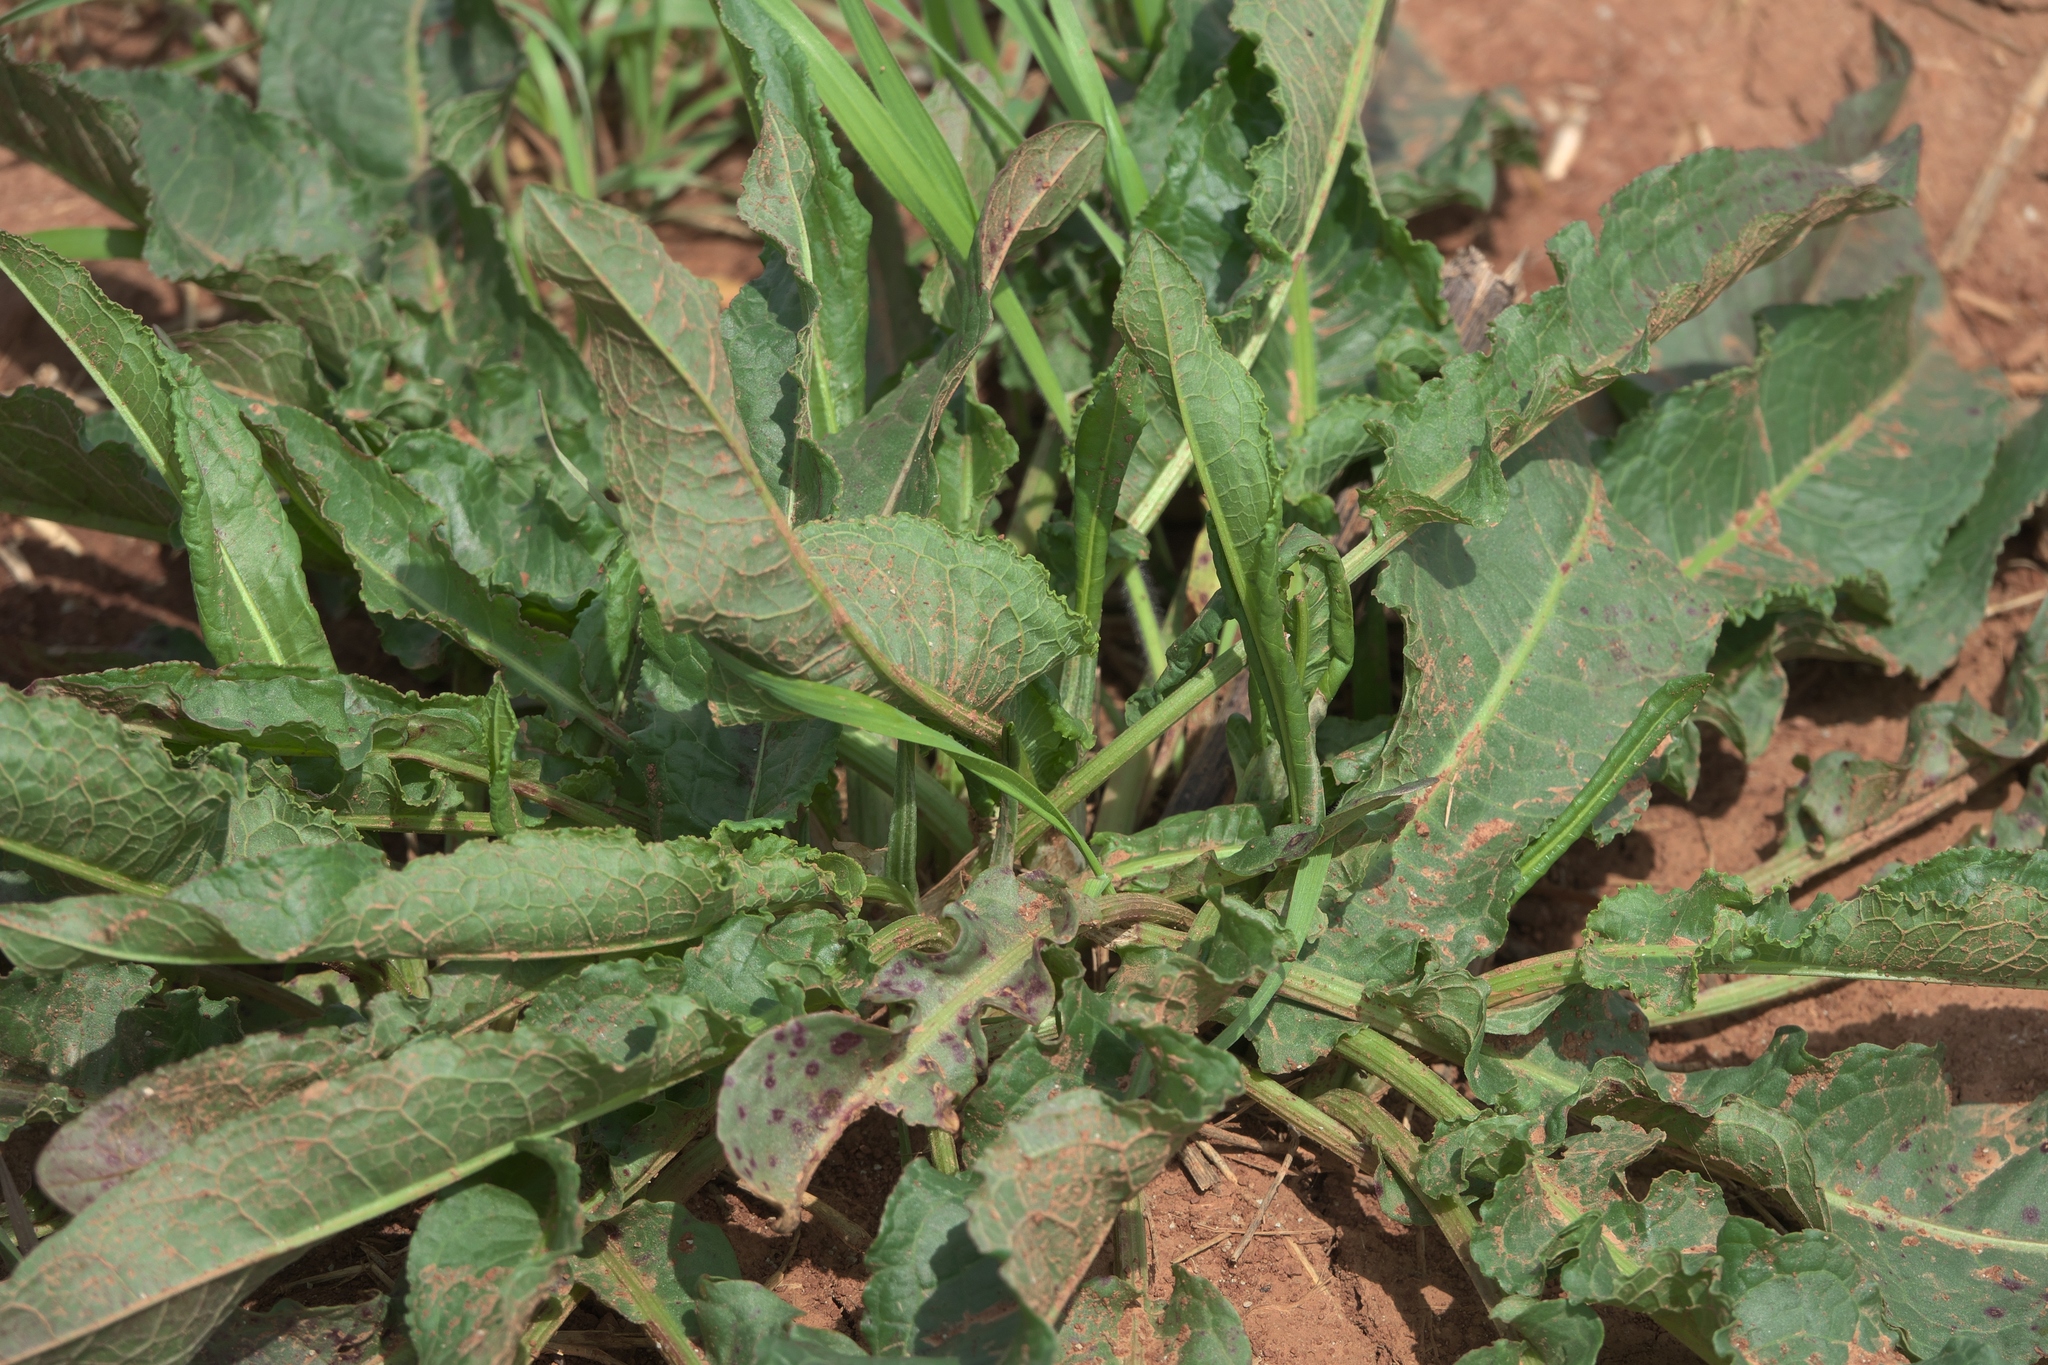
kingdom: Plantae
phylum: Tracheophyta
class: Magnoliopsida
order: Caryophyllales
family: Polygonaceae
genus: Rumex
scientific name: Rumex crispus
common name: Curled dock
